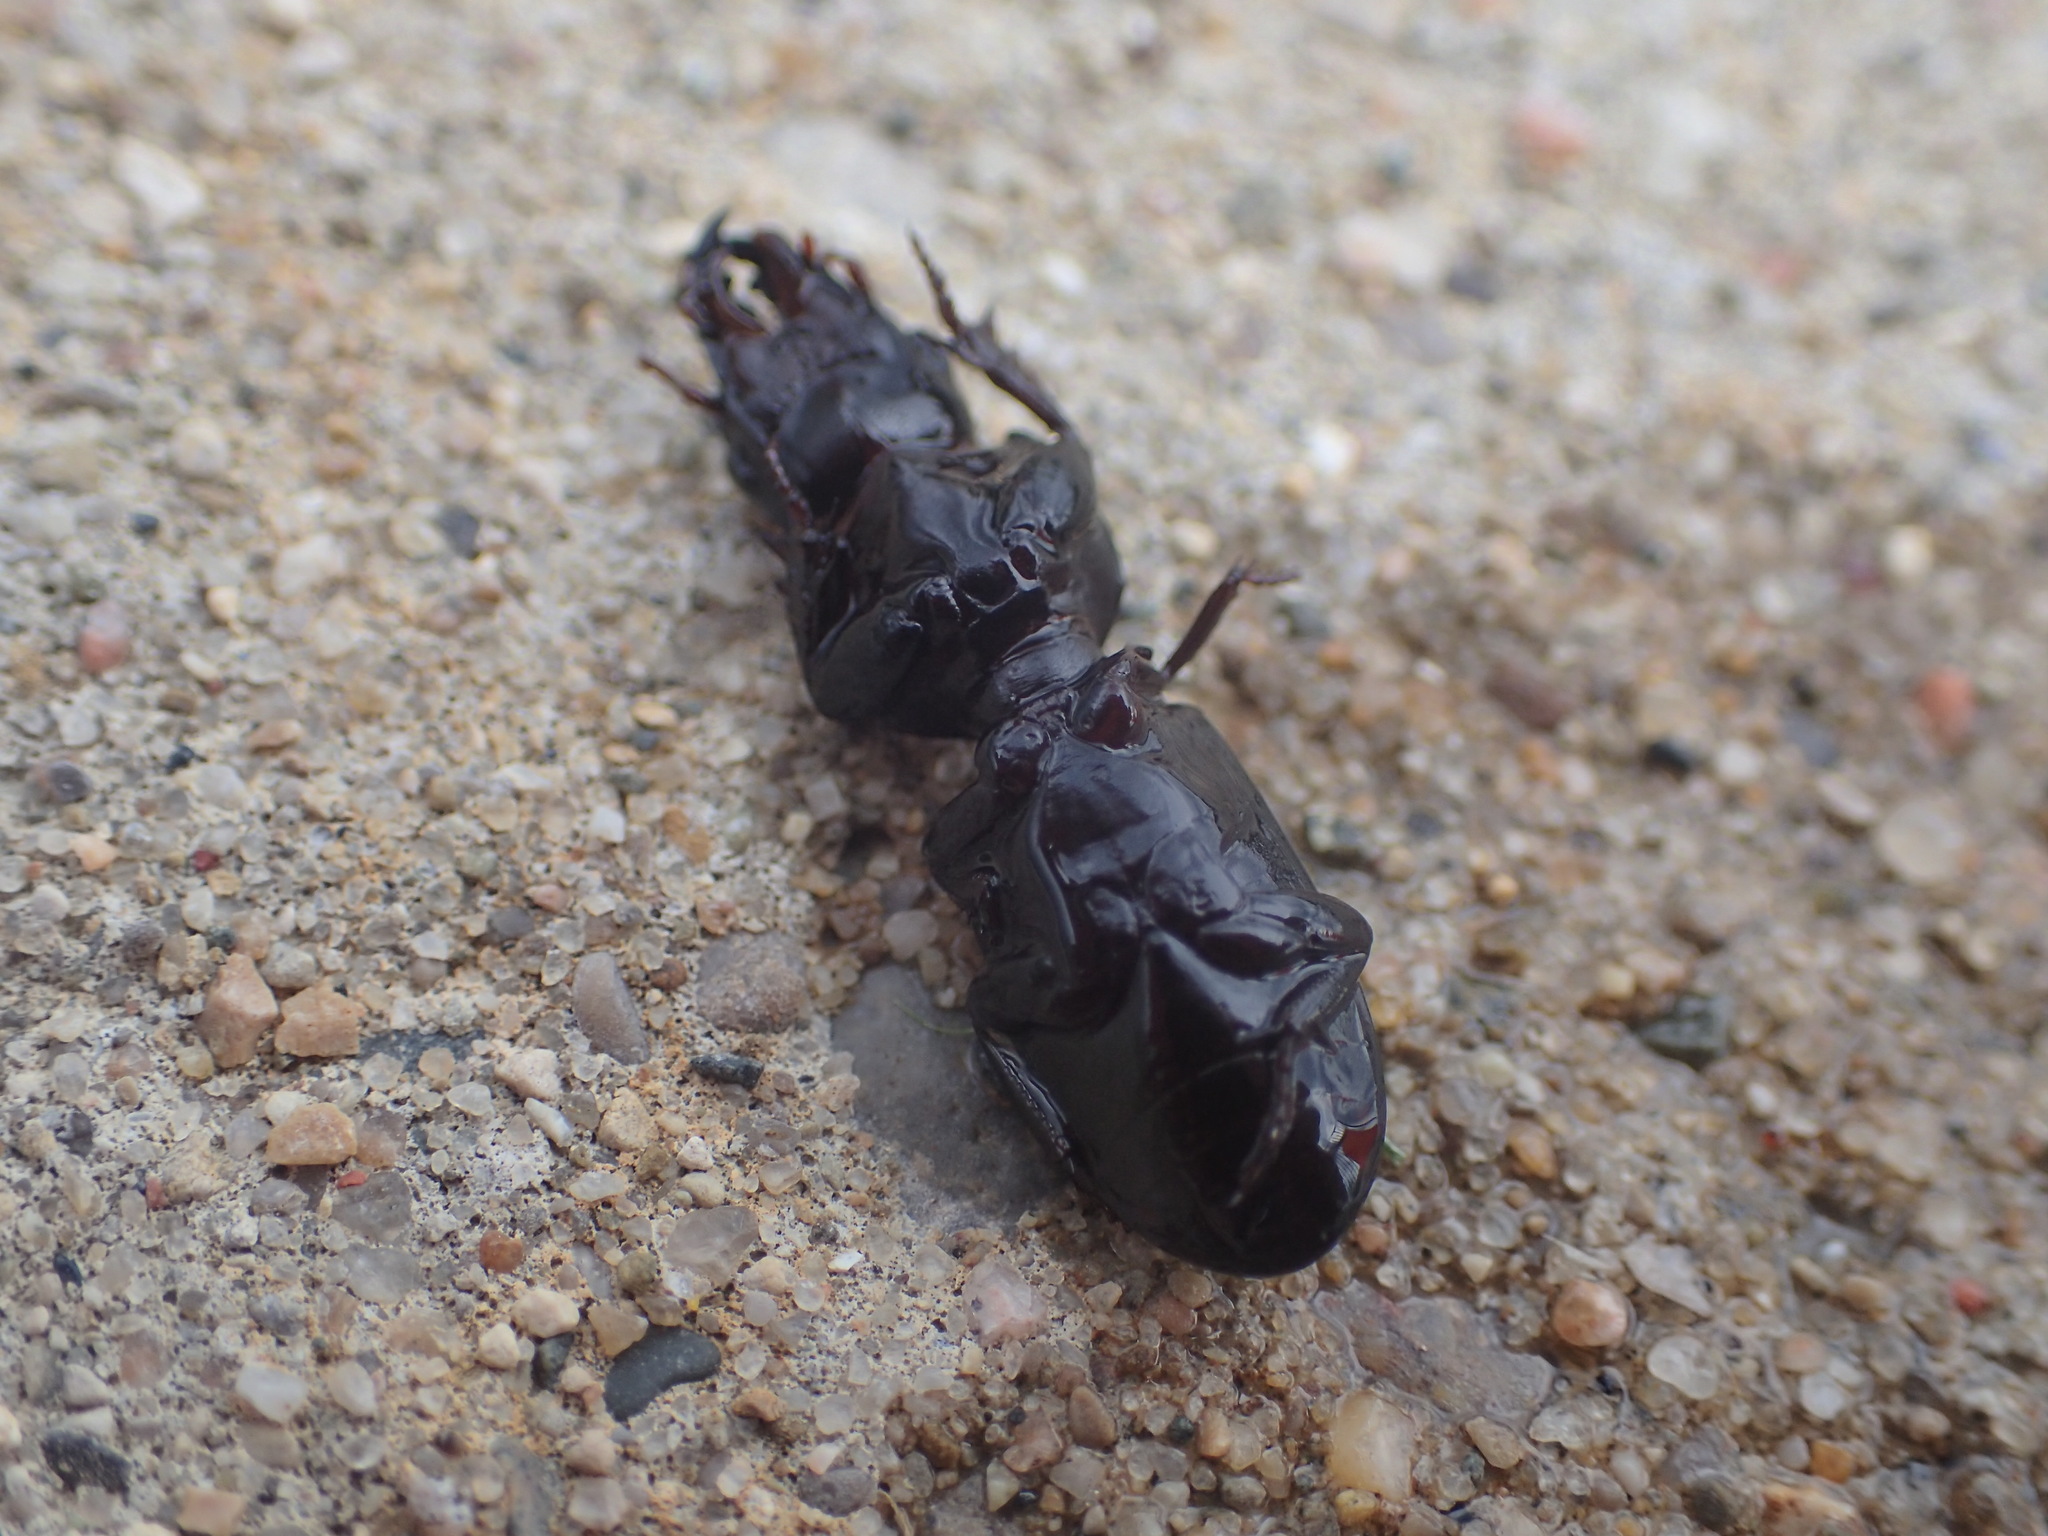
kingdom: Animalia
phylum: Arthropoda
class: Insecta
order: Coleoptera
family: Carabidae
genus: Scarites
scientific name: Scarites subterraneus
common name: Big-headed ground beetle
